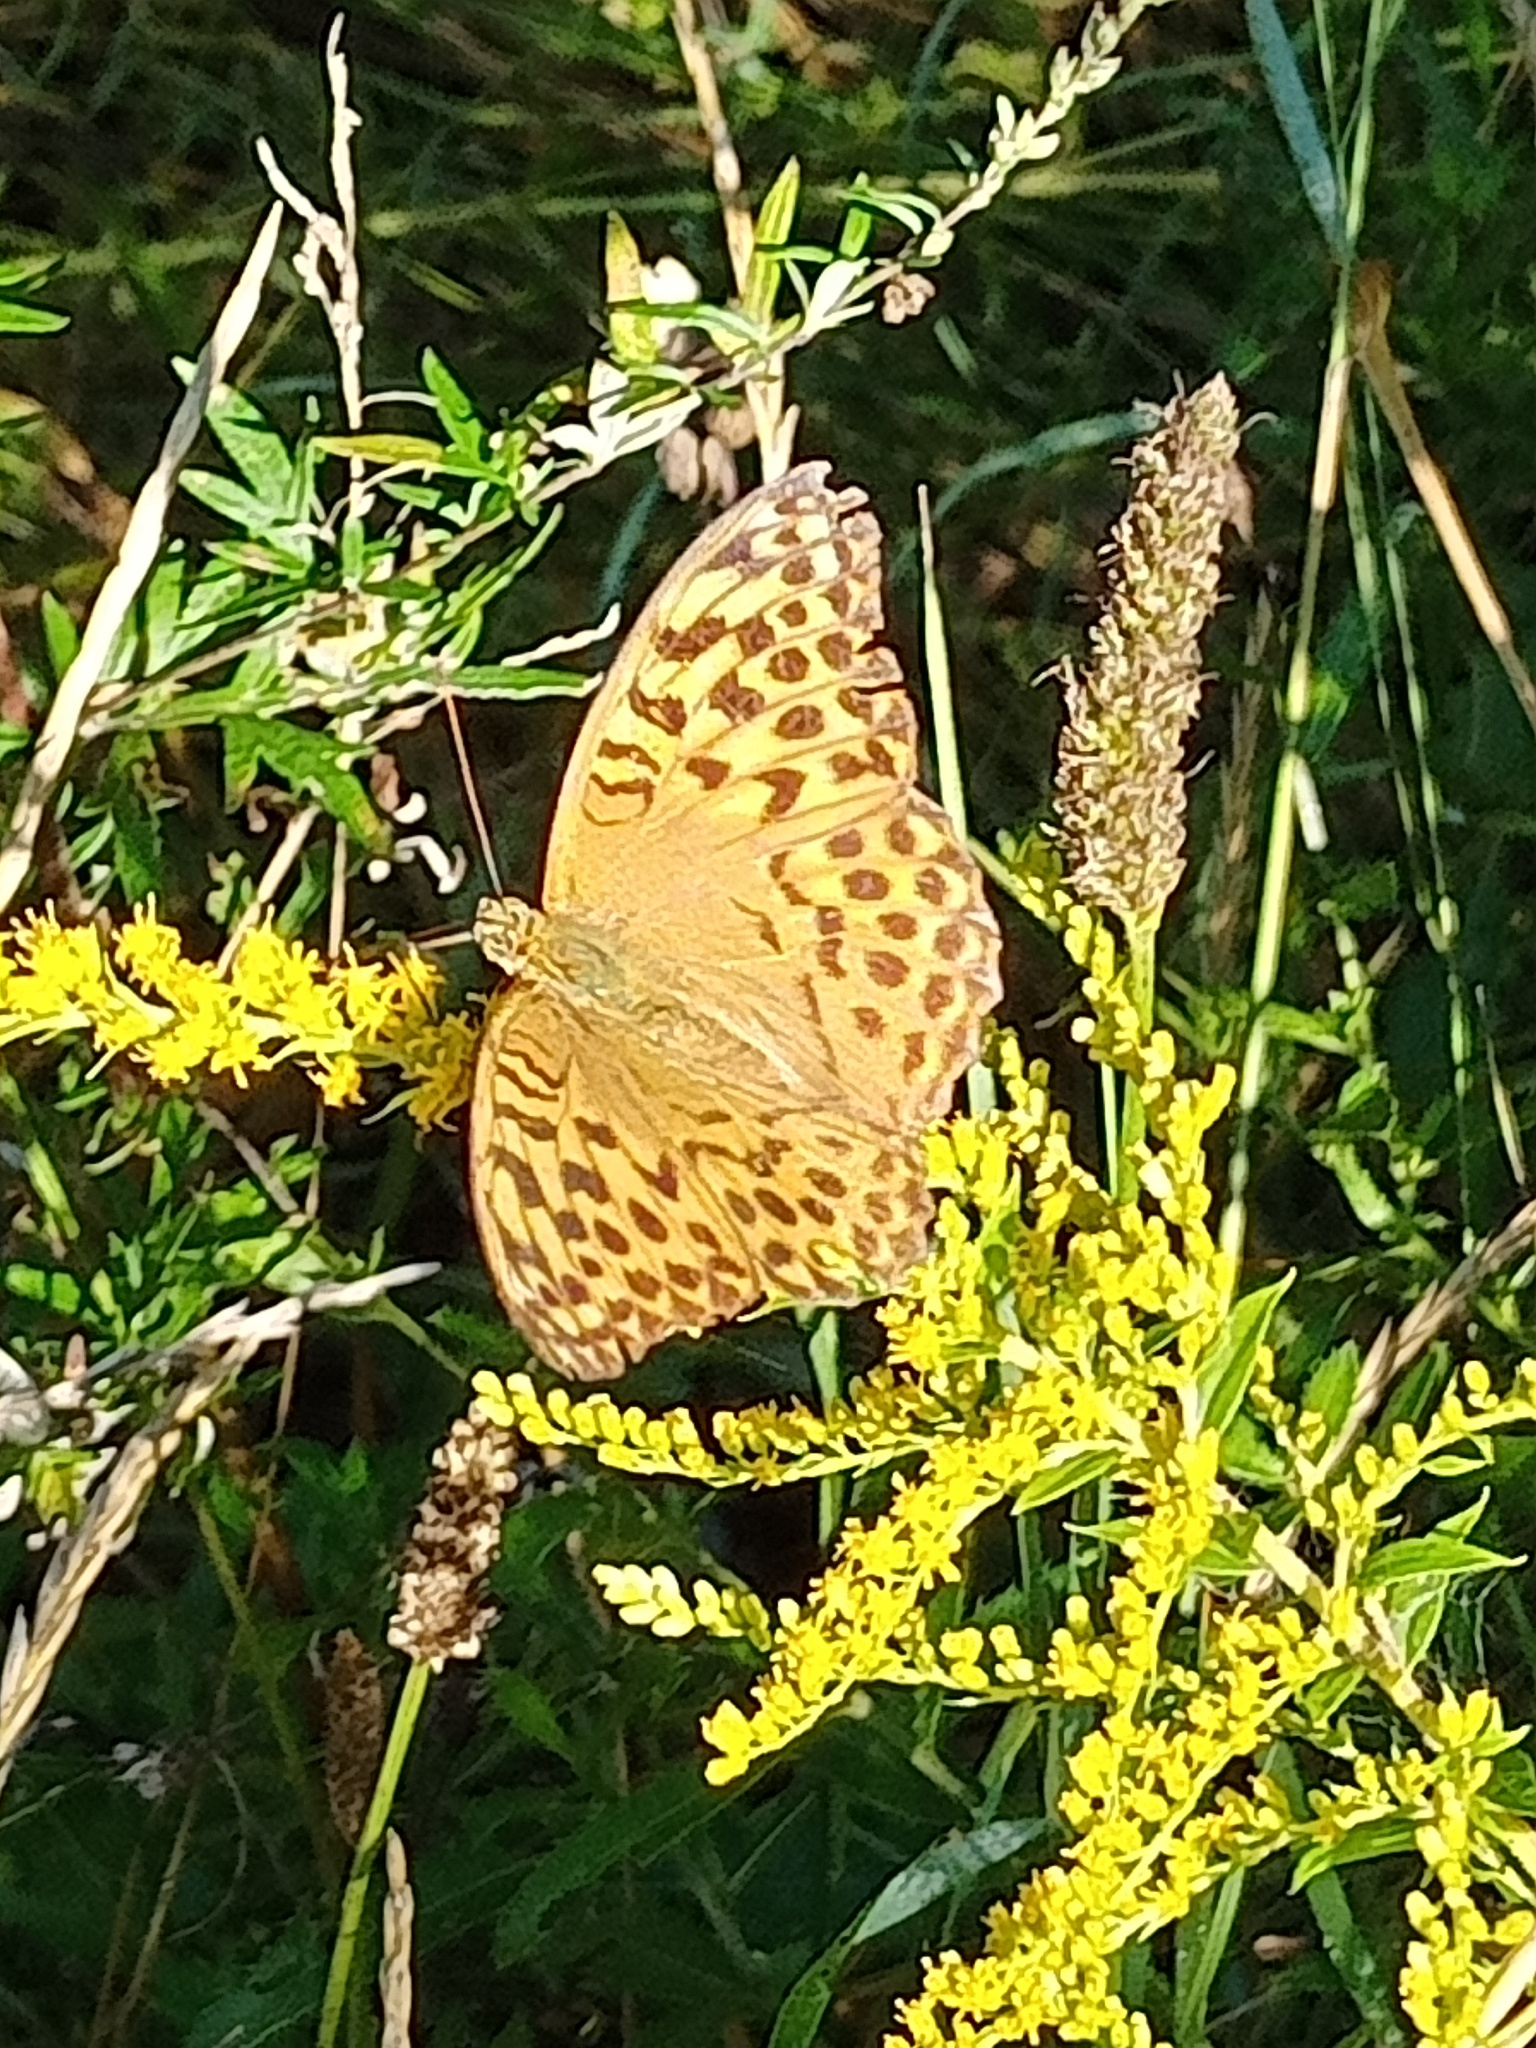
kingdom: Animalia
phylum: Arthropoda
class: Insecta
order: Lepidoptera
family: Nymphalidae
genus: Argynnis
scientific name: Argynnis paphia
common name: Silver-washed fritillary
